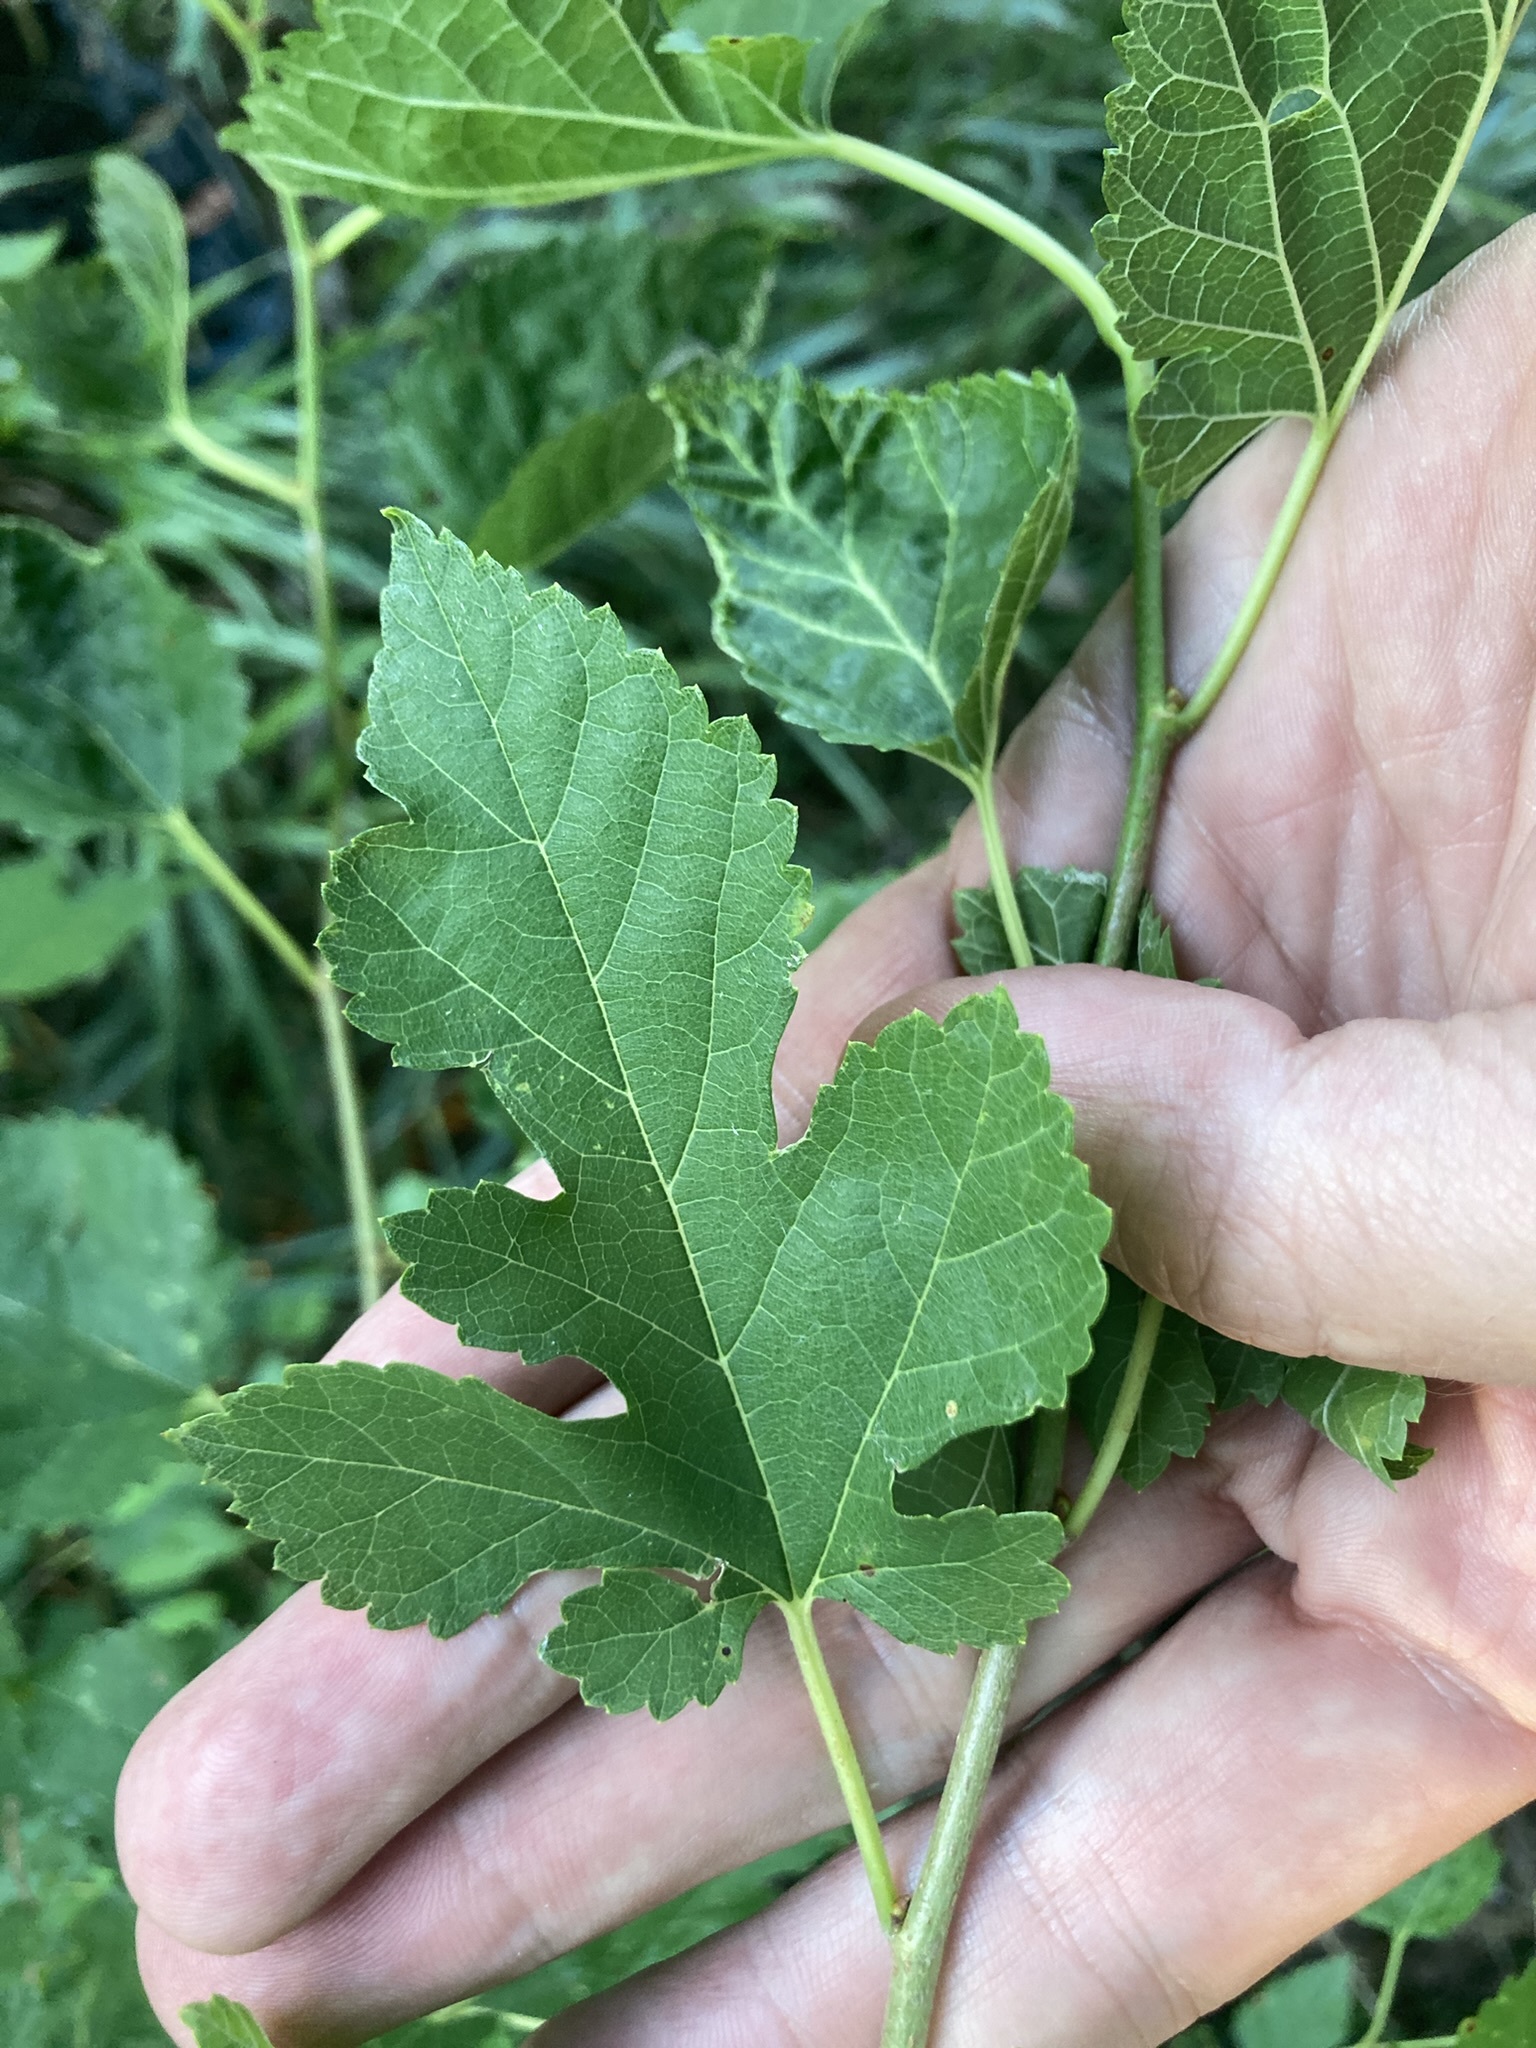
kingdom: Plantae
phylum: Tracheophyta
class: Magnoliopsida
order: Rosales
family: Moraceae
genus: Morus
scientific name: Morus alba
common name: White mulberry
